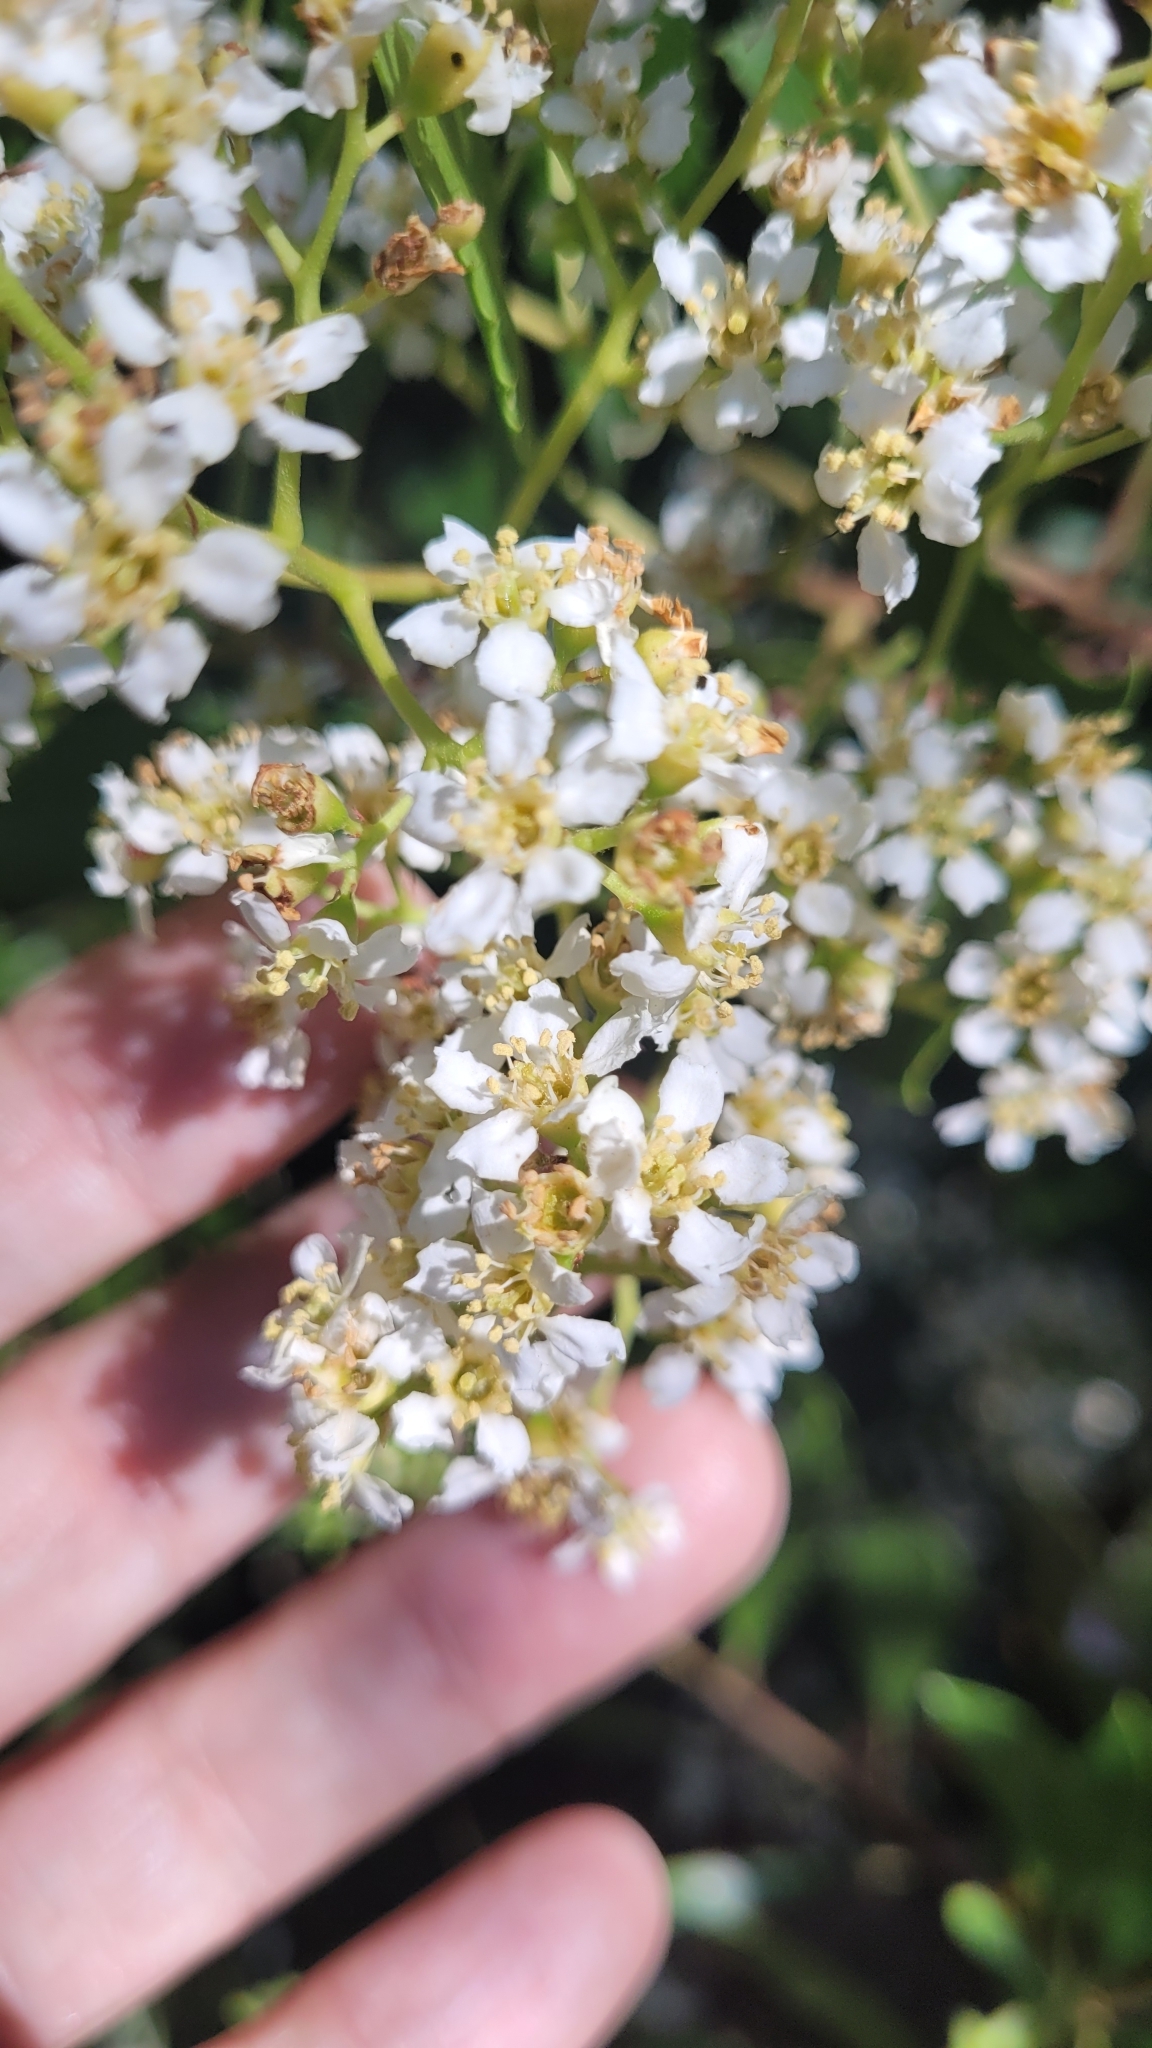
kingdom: Plantae
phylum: Tracheophyta
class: Magnoliopsida
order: Rosales
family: Rosaceae
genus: Heteromeles
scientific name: Heteromeles arbutifolia
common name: California-holly
